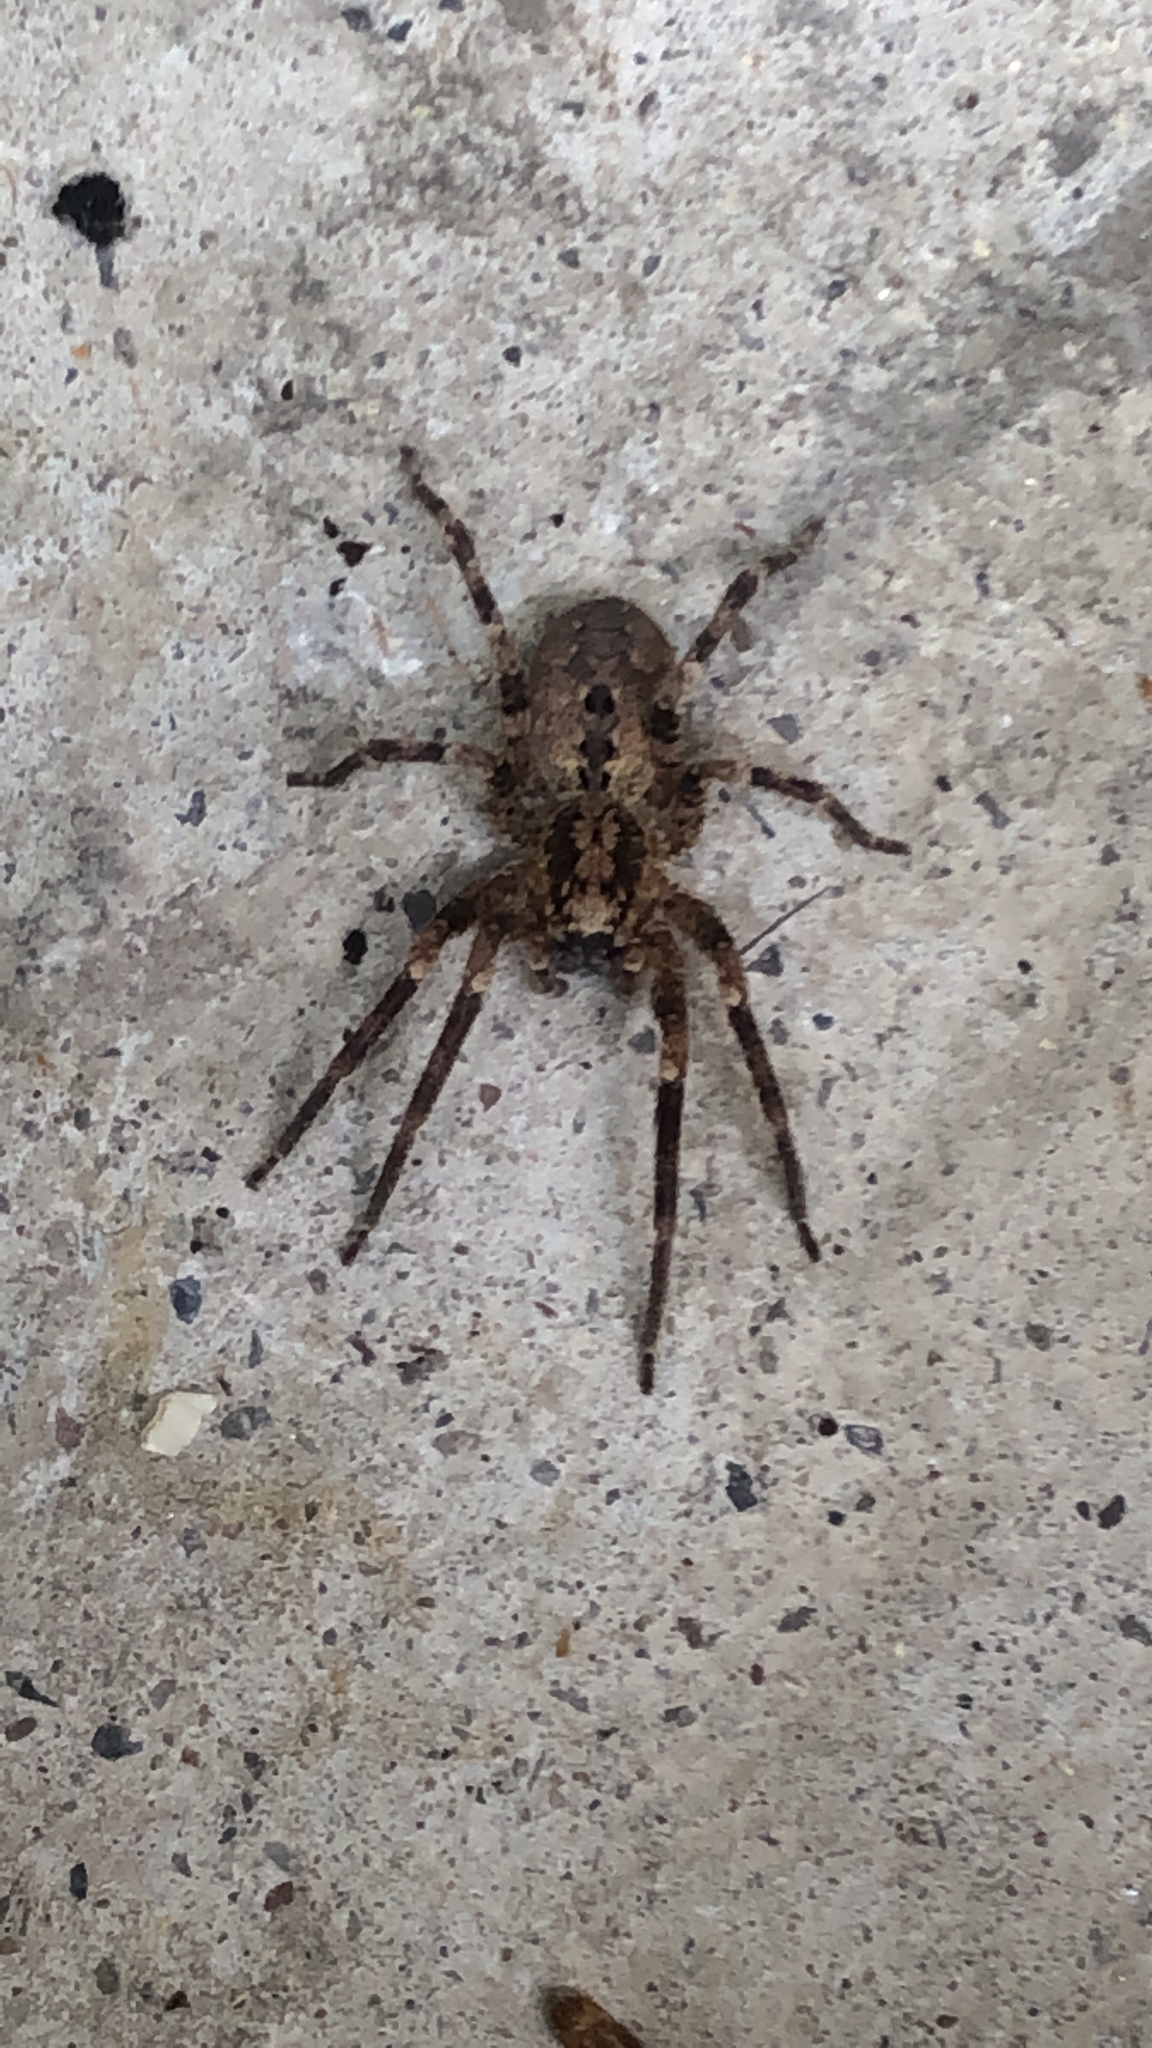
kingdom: Animalia
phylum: Arthropoda
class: Arachnida
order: Araneae
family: Zoropsidae
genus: Zoropsis
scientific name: Zoropsis spinimana
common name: Zoropsid spider
